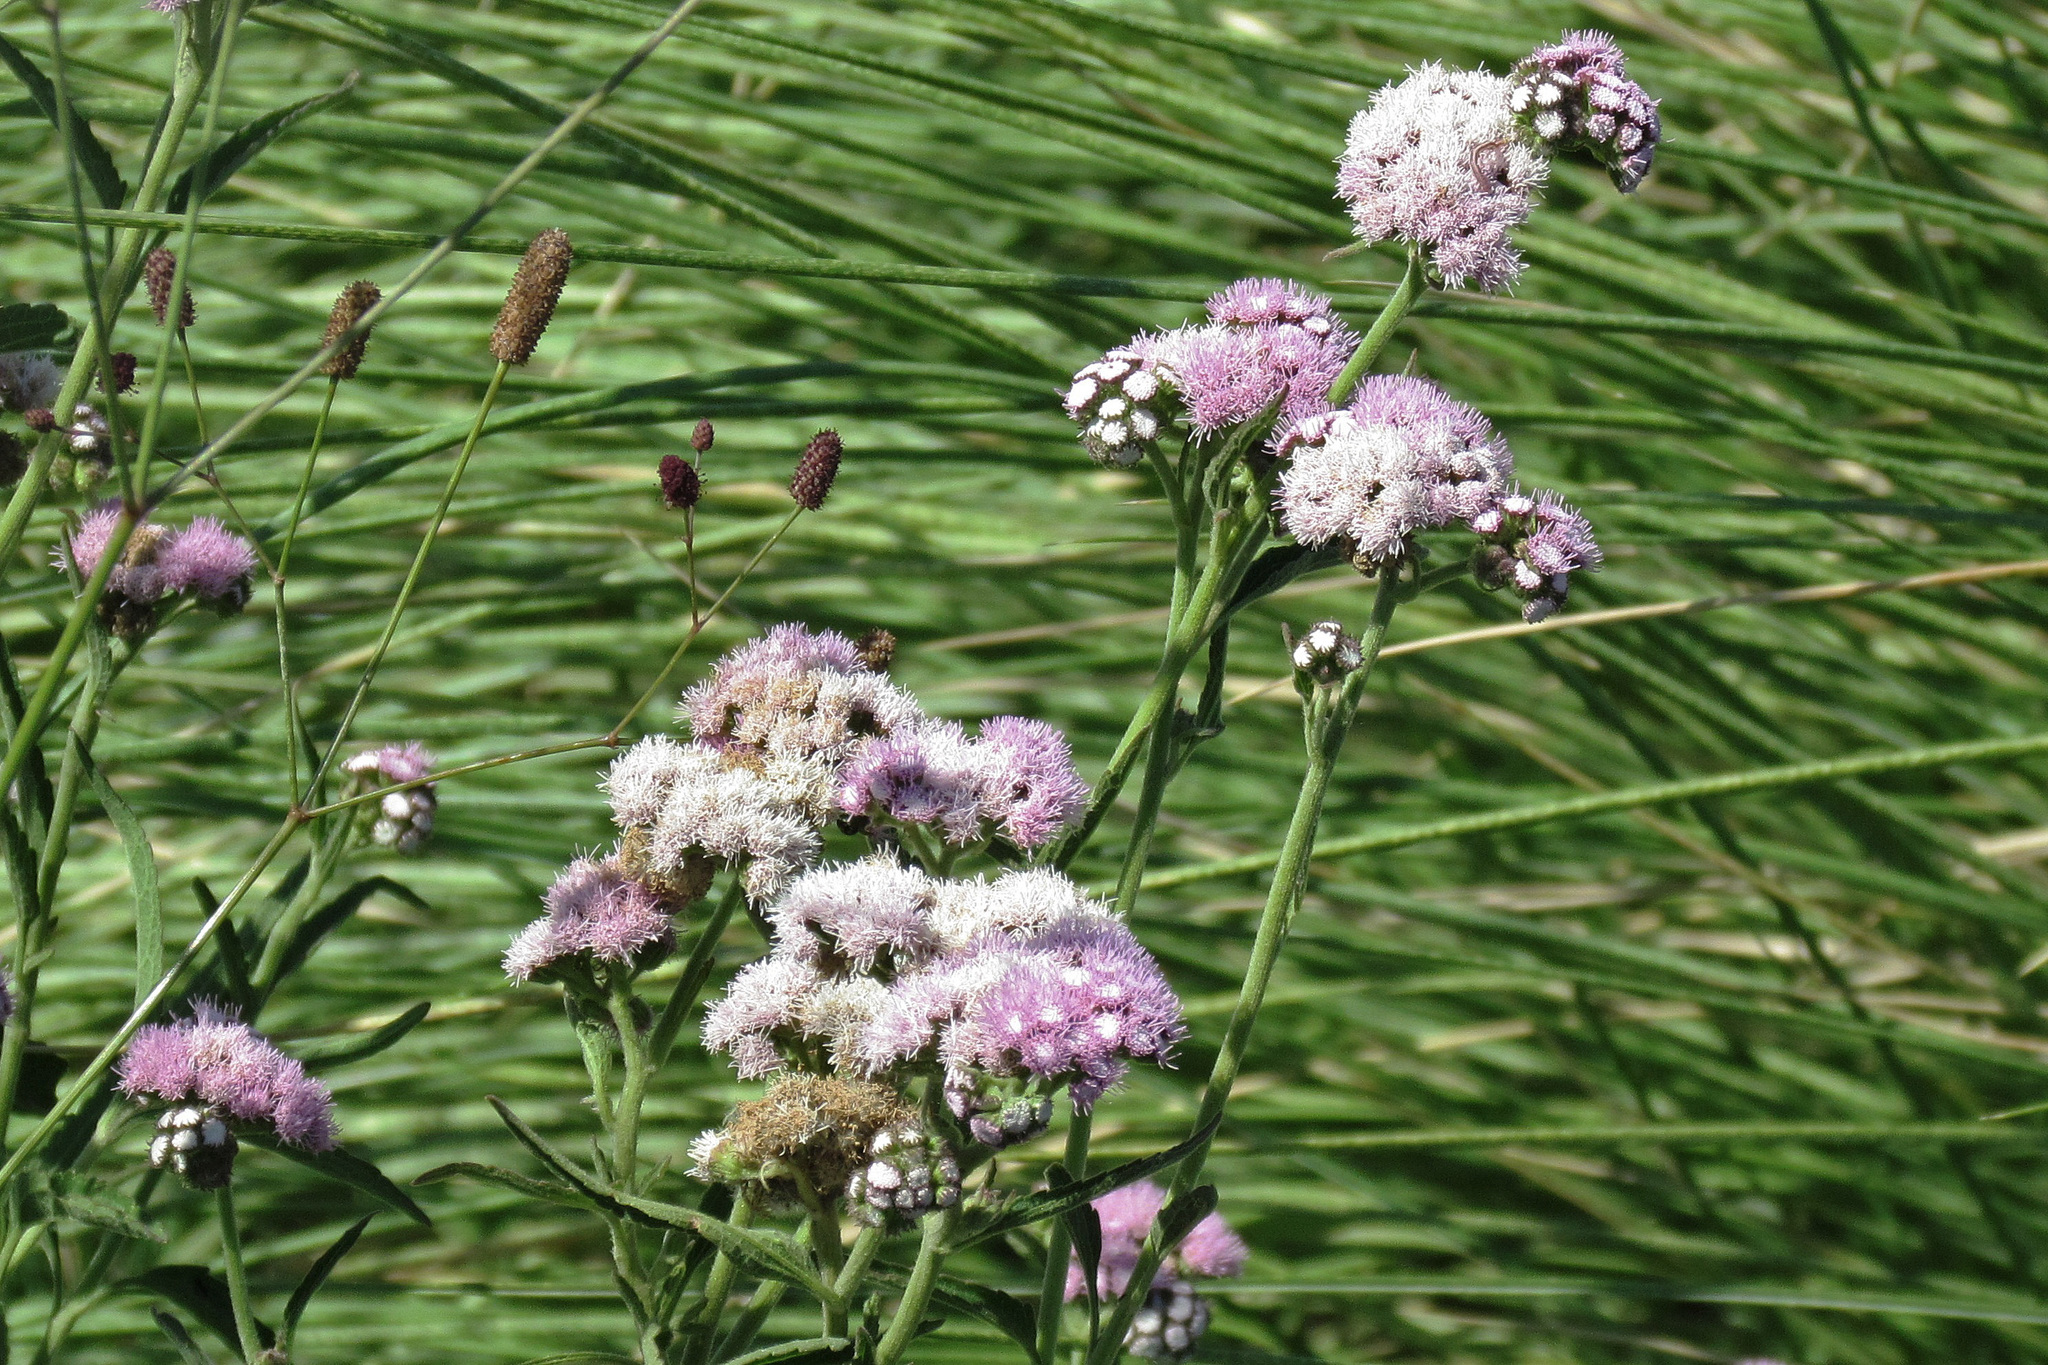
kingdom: Plantae
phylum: Tracheophyta
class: Magnoliopsida
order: Asterales
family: Asteraceae
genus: Barrosoa
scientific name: Barrosoa candolleana
